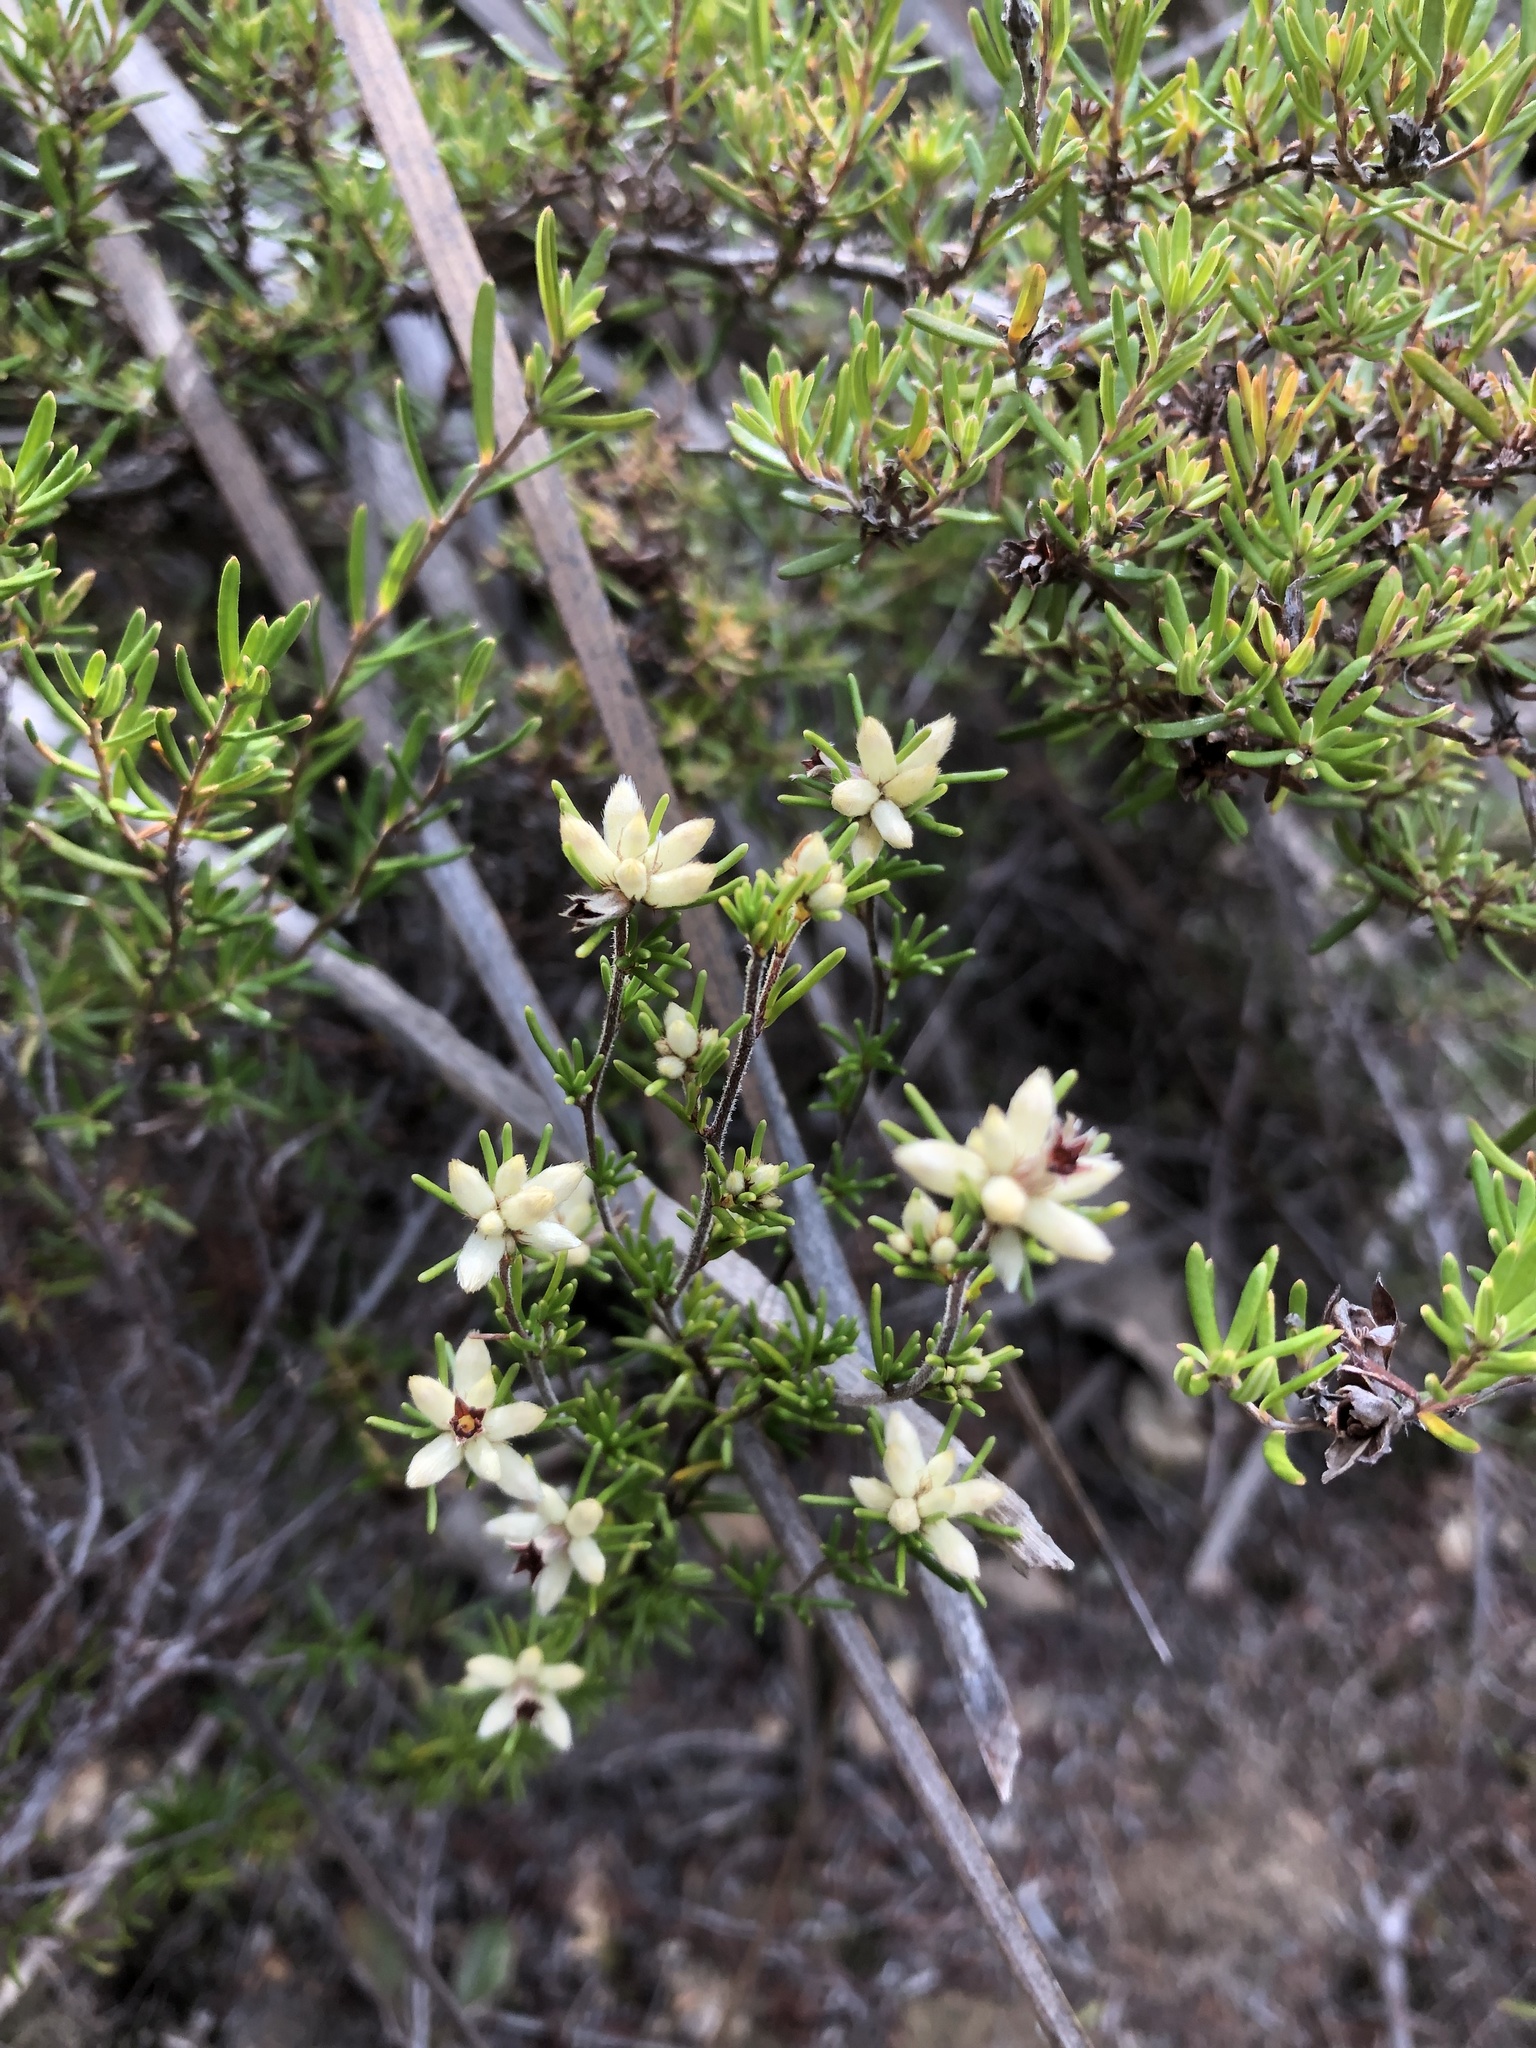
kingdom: Plantae
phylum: Tracheophyta
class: Magnoliopsida
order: Rosales
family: Rhamnaceae
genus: Cryptandra
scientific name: Cryptandra hispidula
